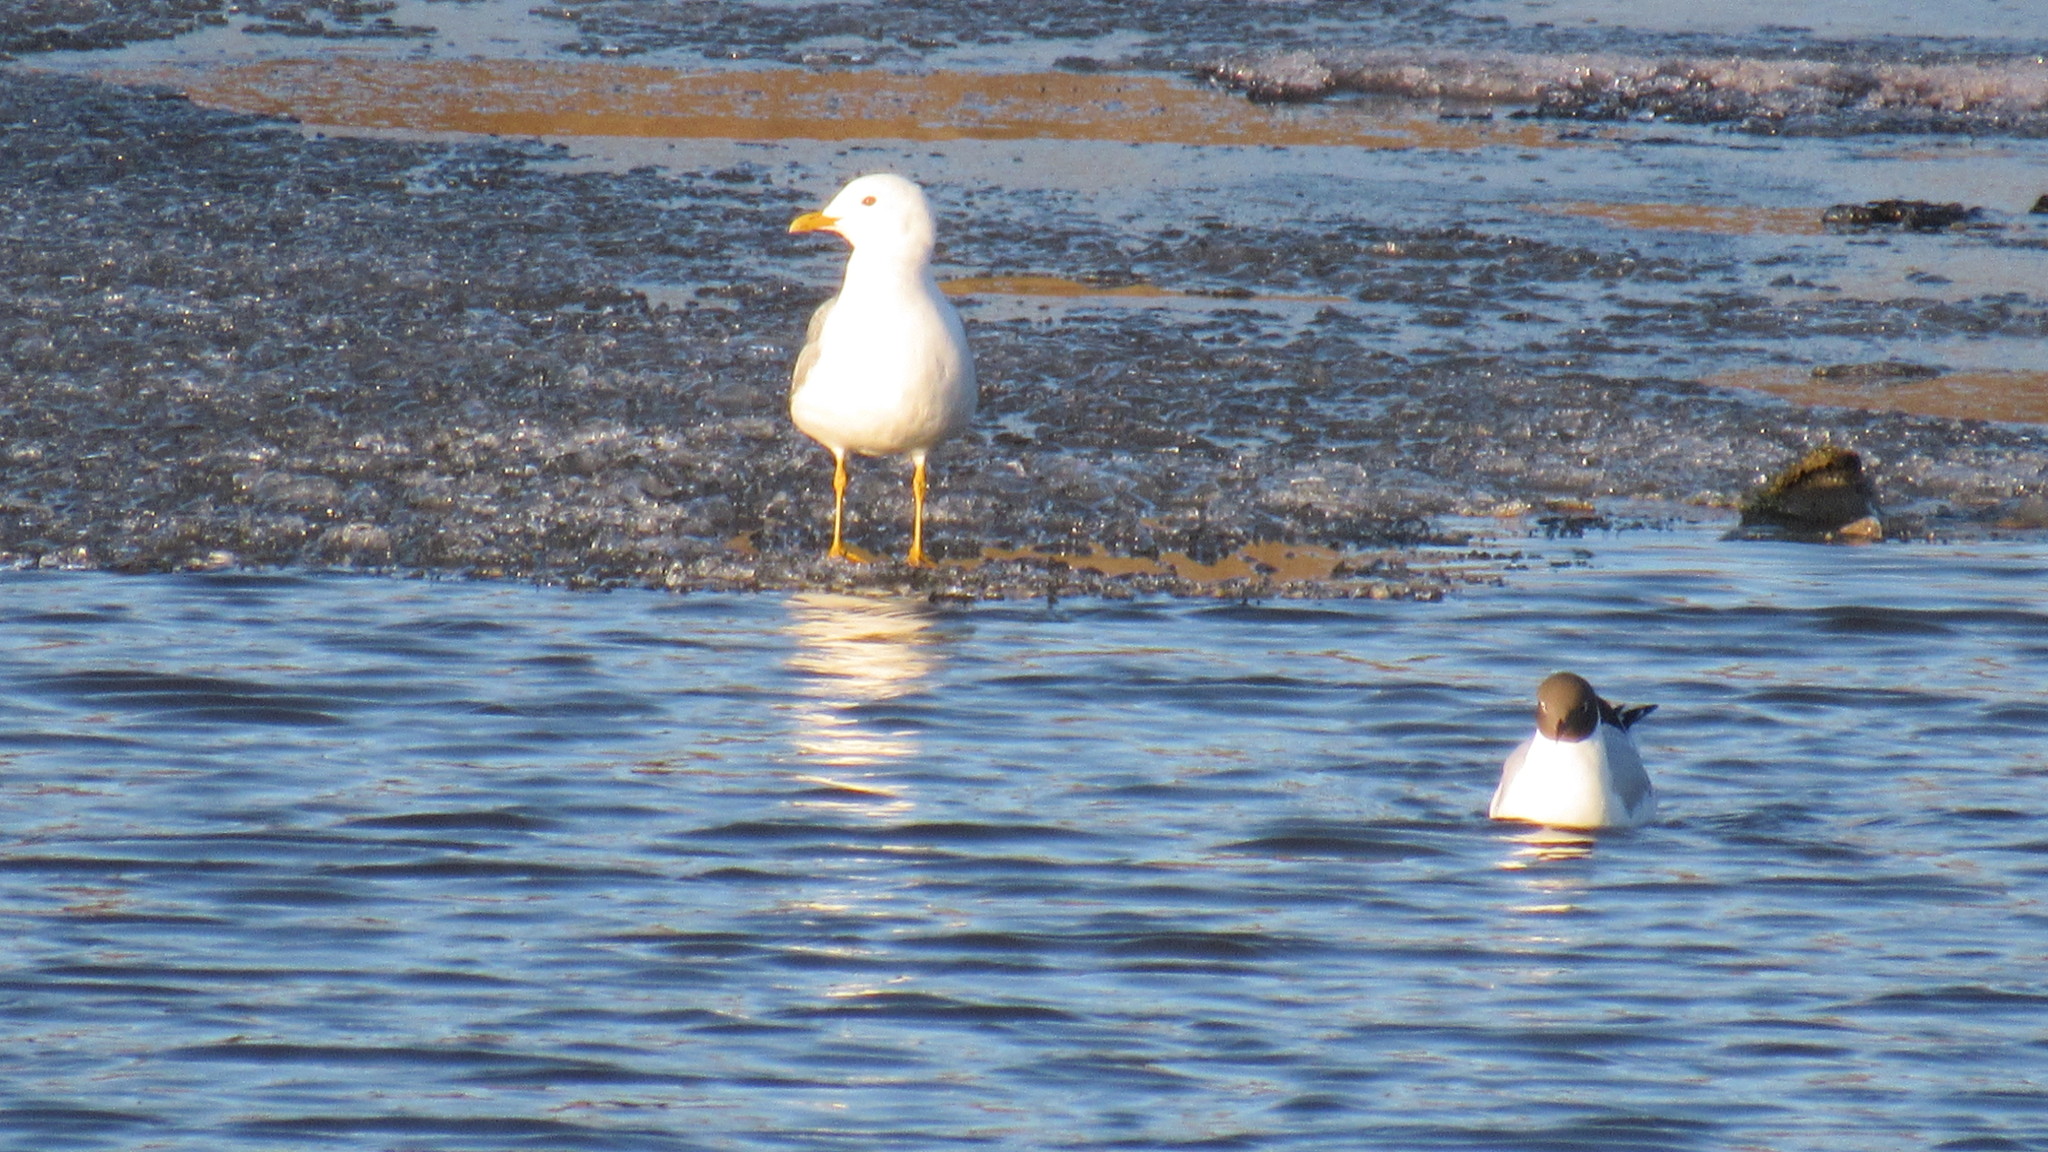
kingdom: Animalia
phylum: Chordata
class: Aves
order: Charadriiformes
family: Laridae
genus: Larus
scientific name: Larus canus
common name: Mew gull
